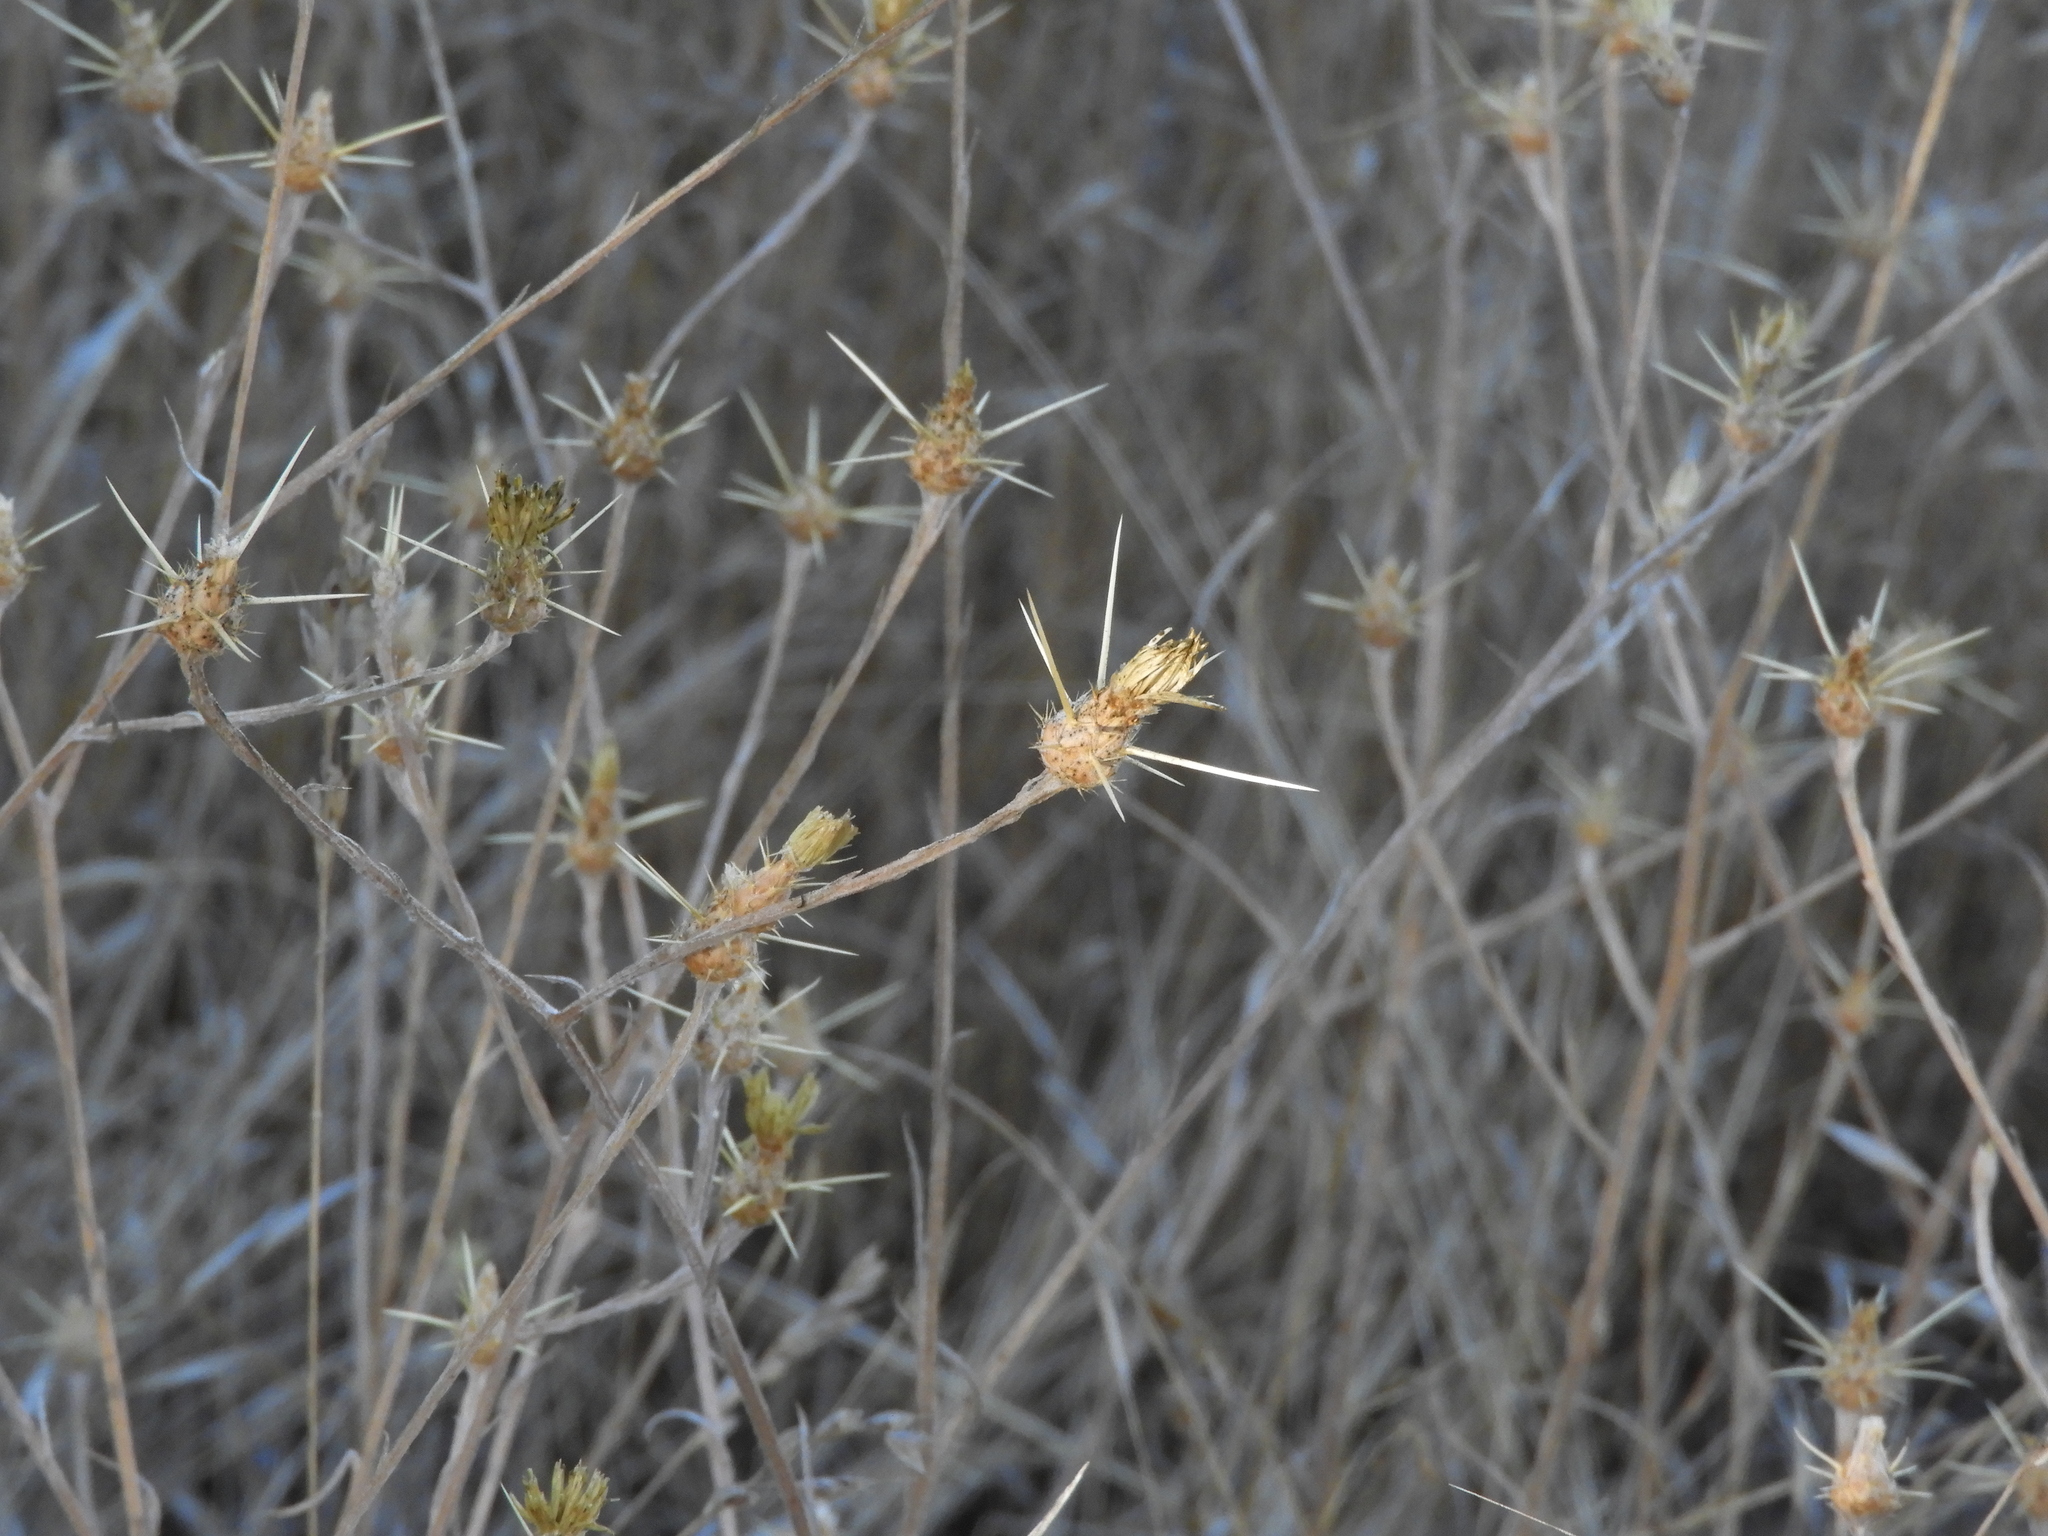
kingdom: Plantae
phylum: Tracheophyta
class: Magnoliopsida
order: Asterales
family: Asteraceae
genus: Centaurea
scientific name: Centaurea solstitialis
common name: Yellow star-thistle
